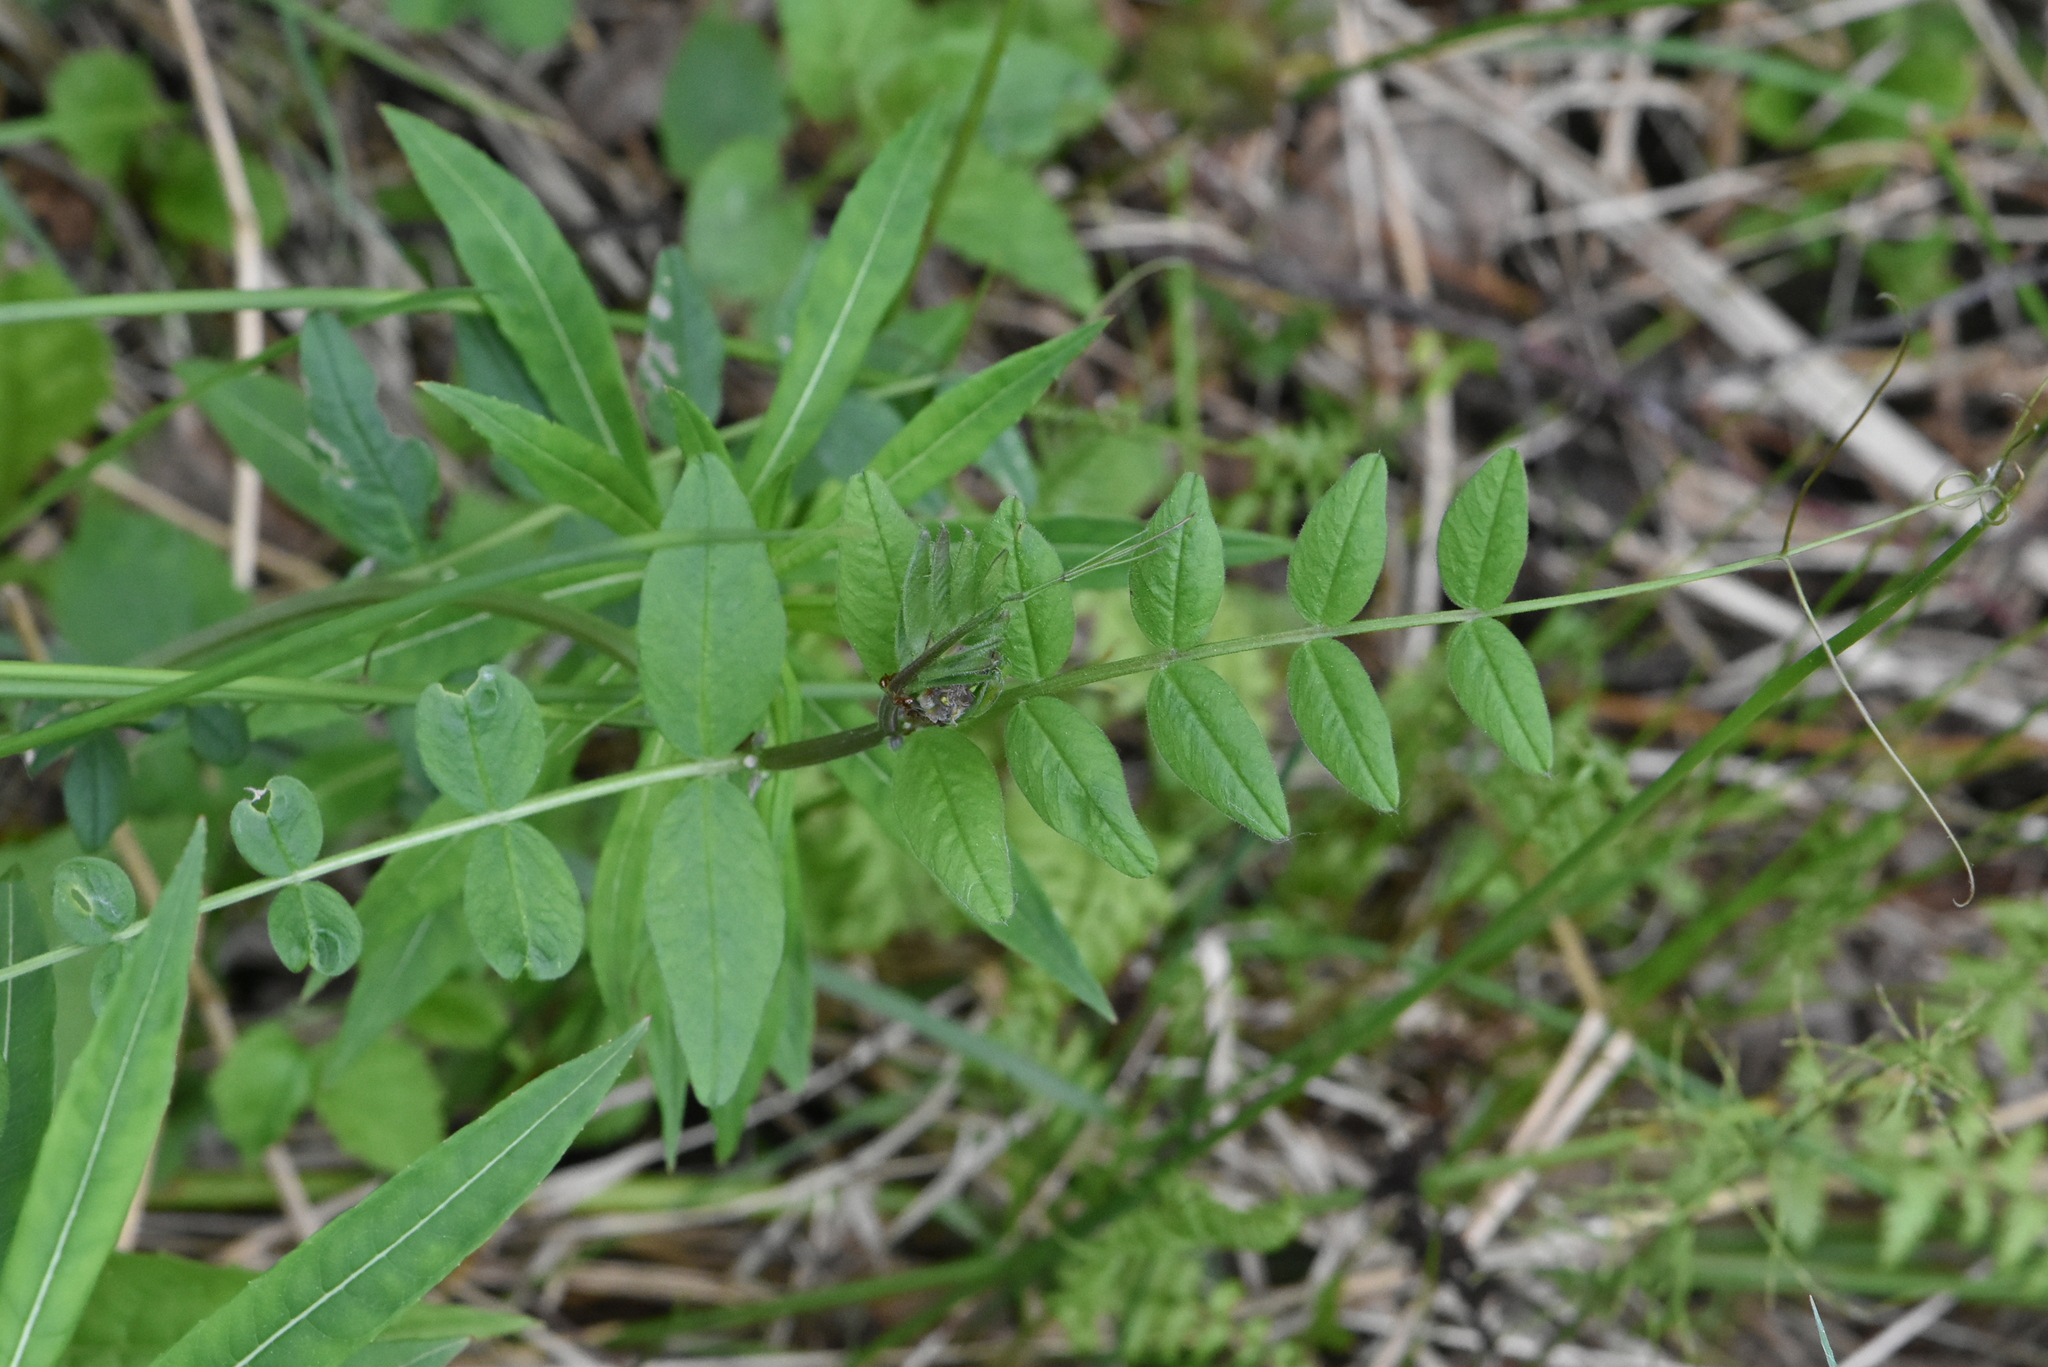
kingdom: Plantae
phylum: Tracheophyta
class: Magnoliopsida
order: Fabales
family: Fabaceae
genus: Vicia
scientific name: Vicia sepium
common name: Bush vetch
